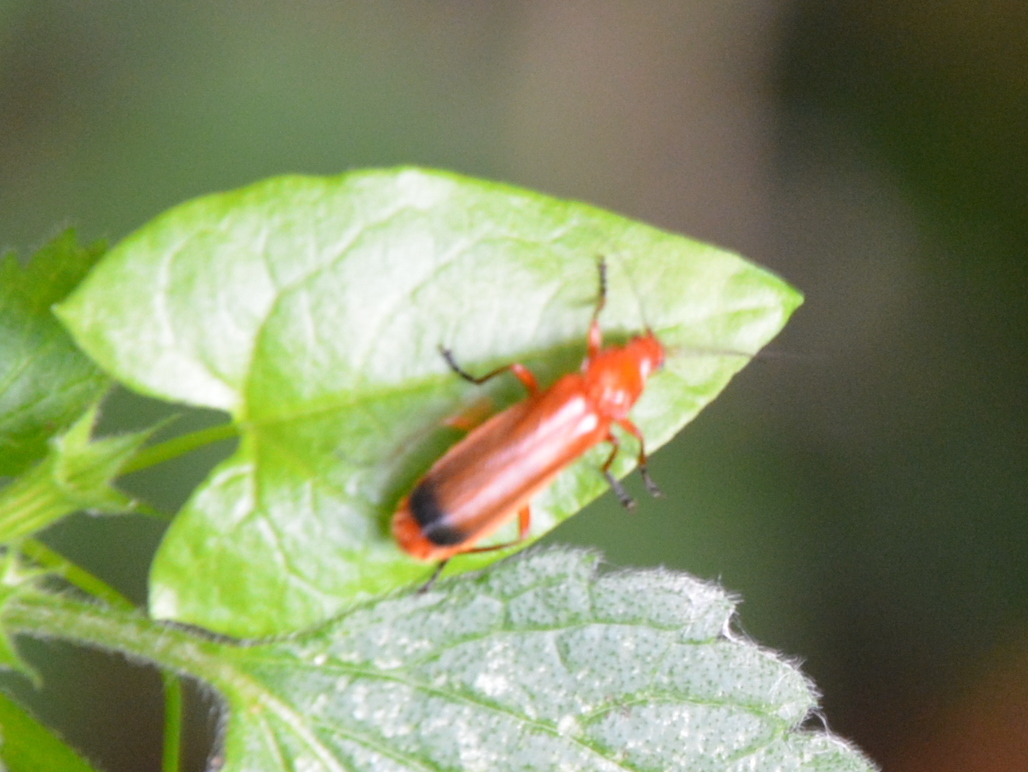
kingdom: Animalia
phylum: Arthropoda
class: Insecta
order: Coleoptera
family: Cantharidae
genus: Rhagonycha
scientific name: Rhagonycha fulva
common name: Common red soldier beetle
